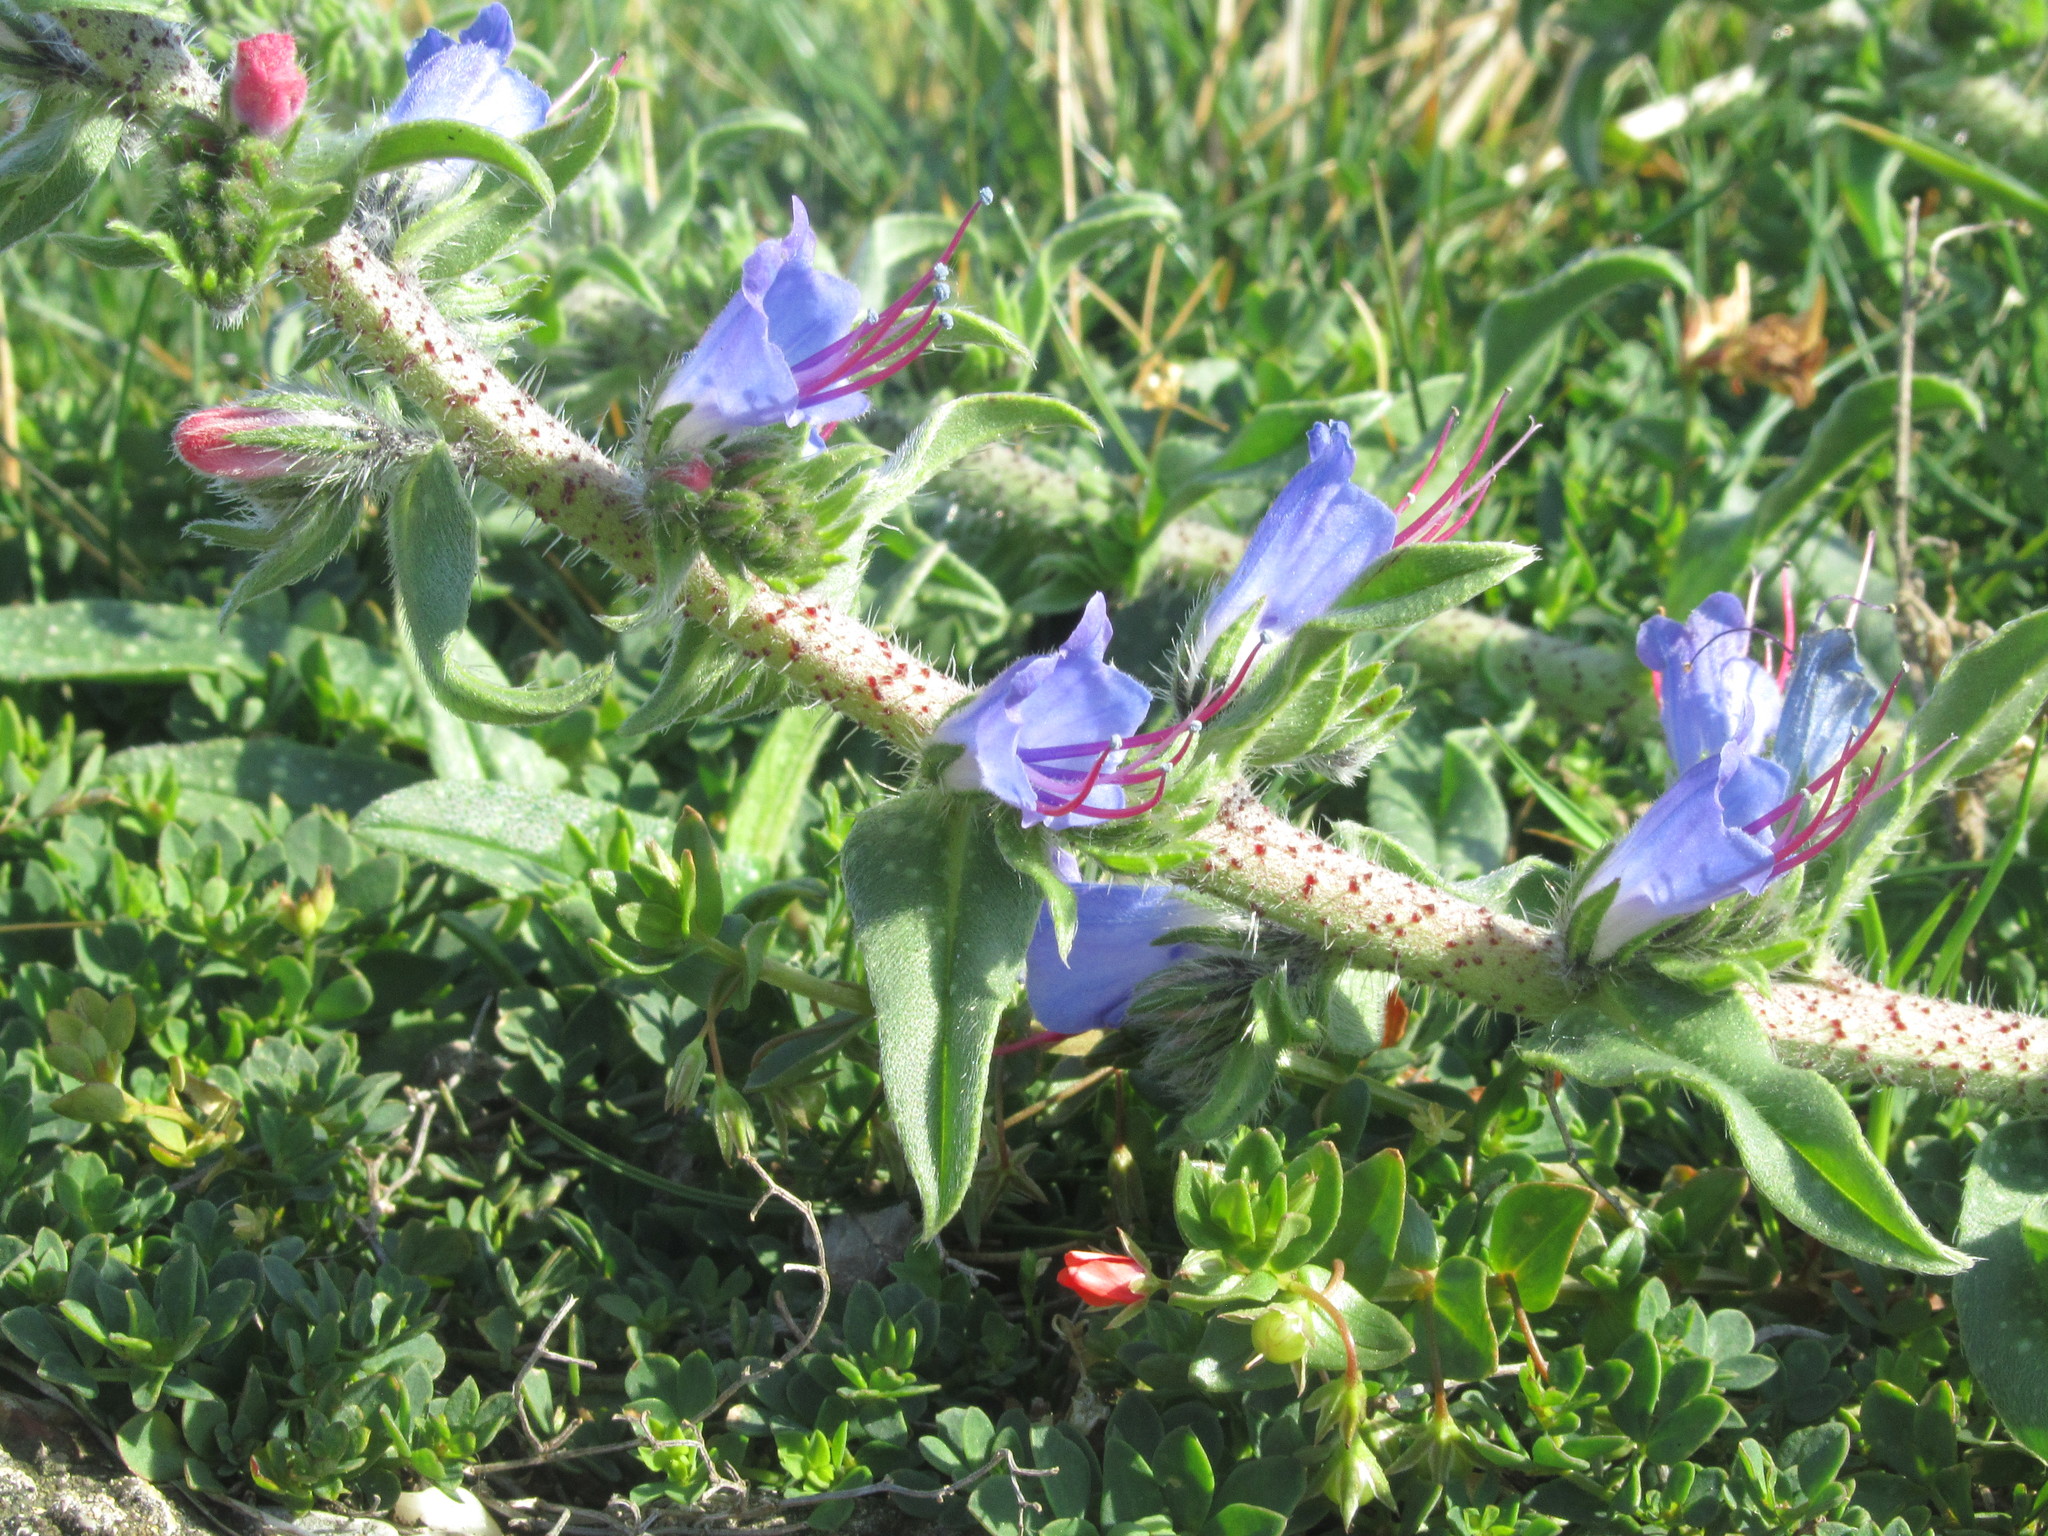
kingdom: Plantae
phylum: Tracheophyta
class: Magnoliopsida
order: Boraginales
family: Boraginaceae
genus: Echium
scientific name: Echium vulgare
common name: Common viper's bugloss
